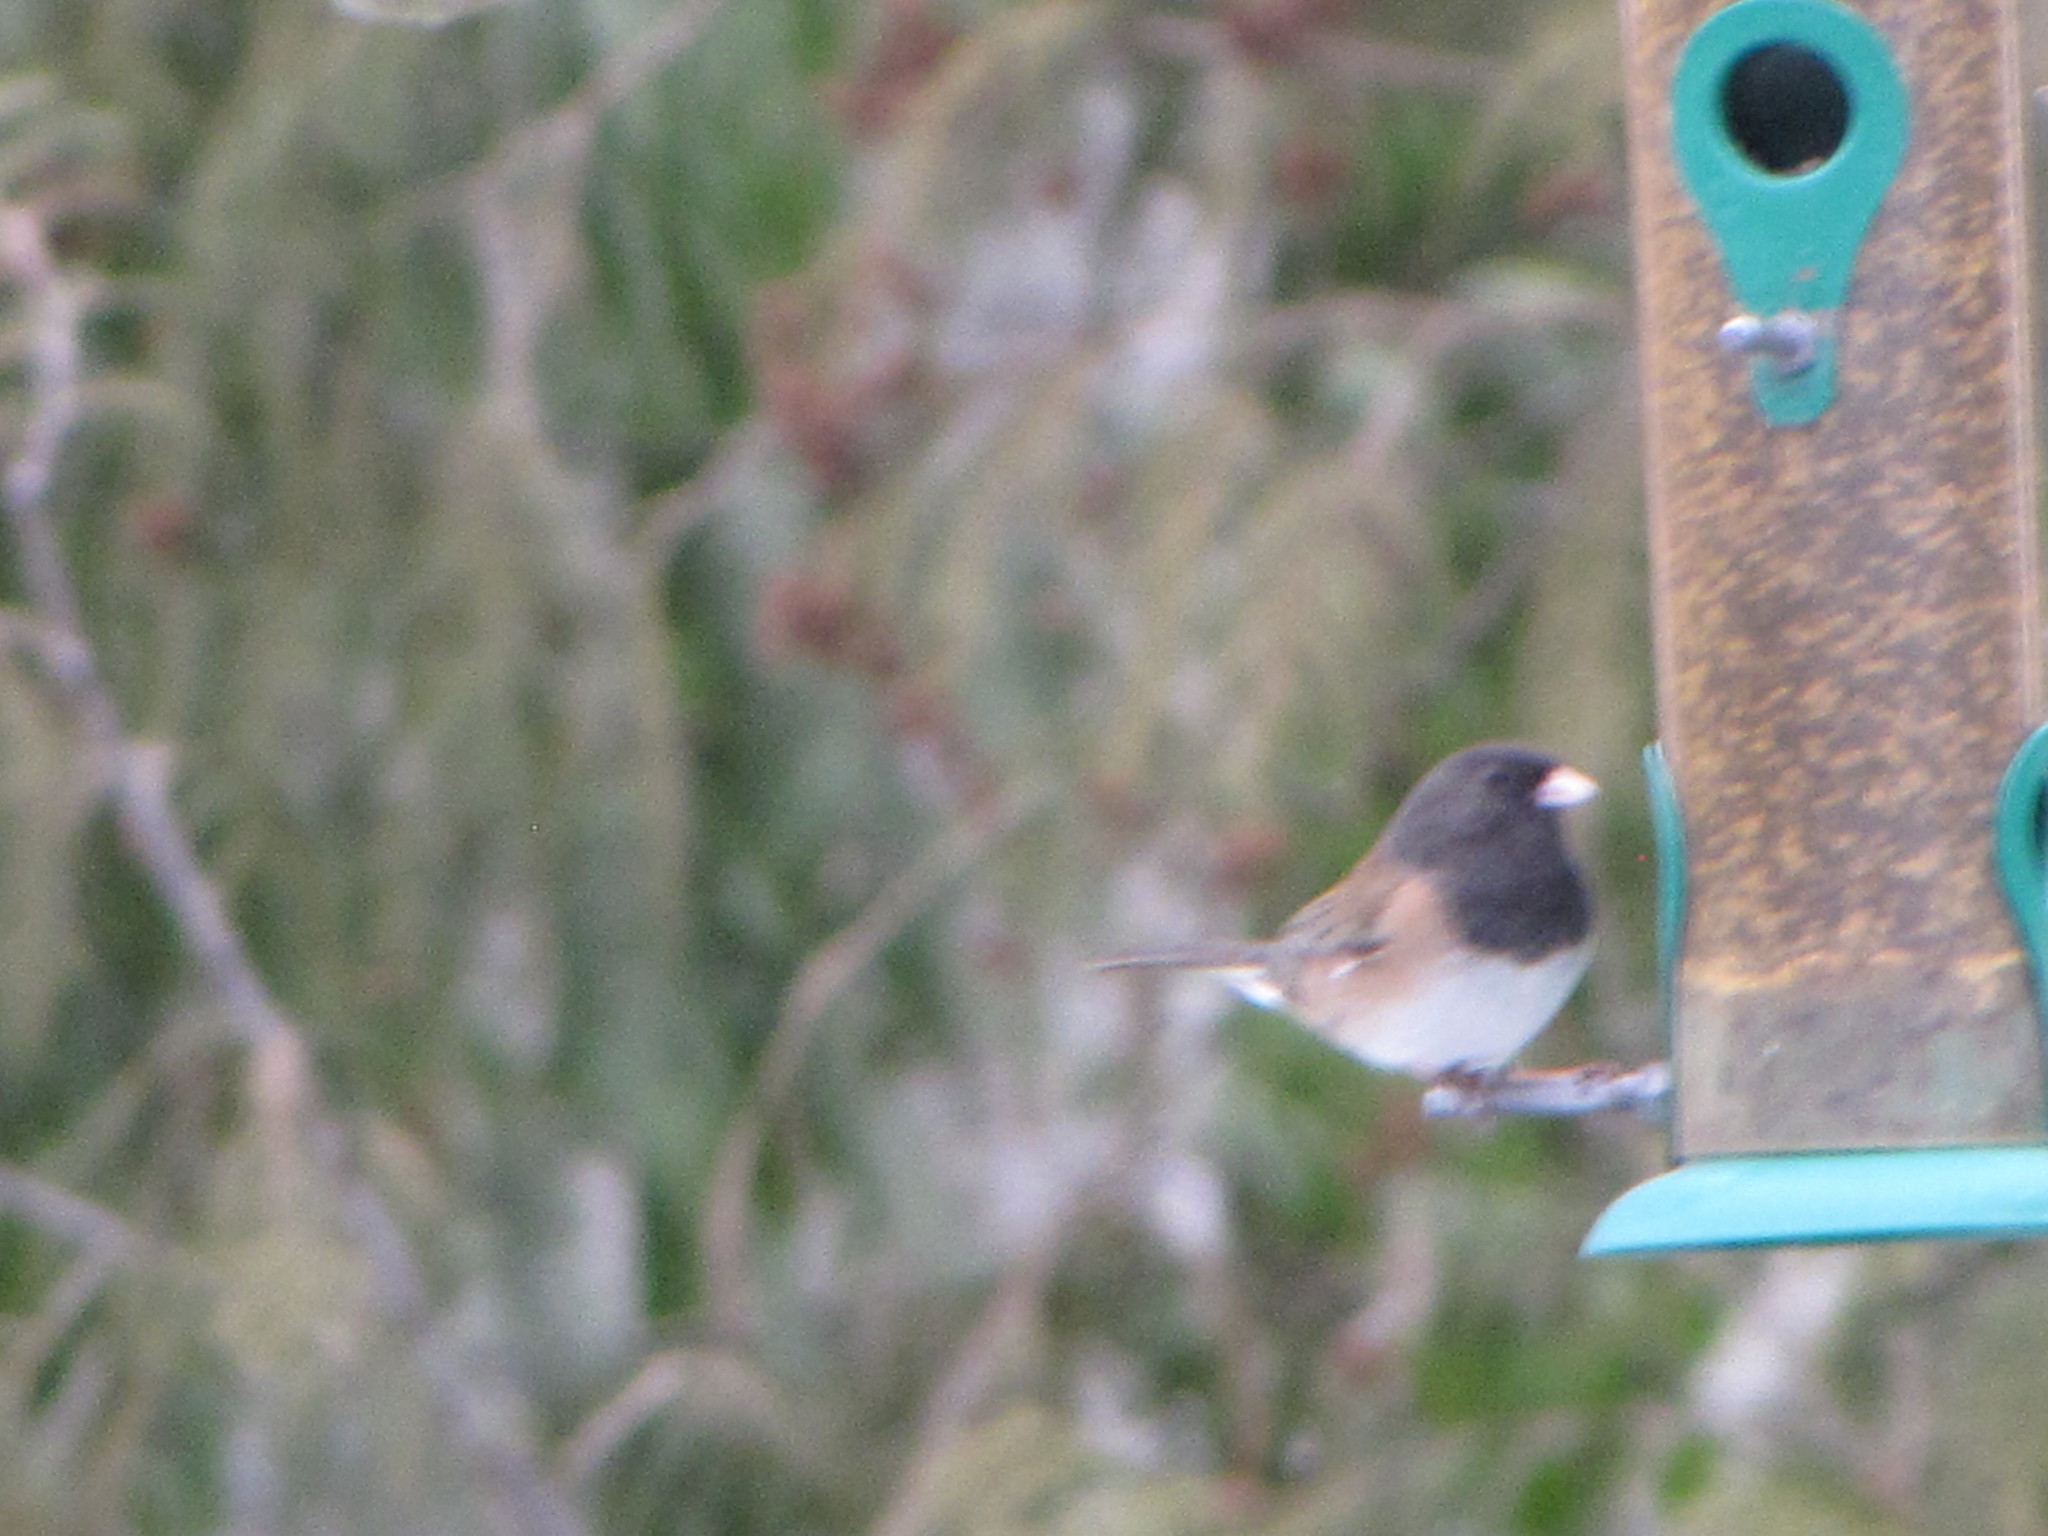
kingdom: Animalia
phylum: Chordata
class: Aves
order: Passeriformes
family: Passerellidae
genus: Junco
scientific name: Junco hyemalis
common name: Dark-eyed junco
